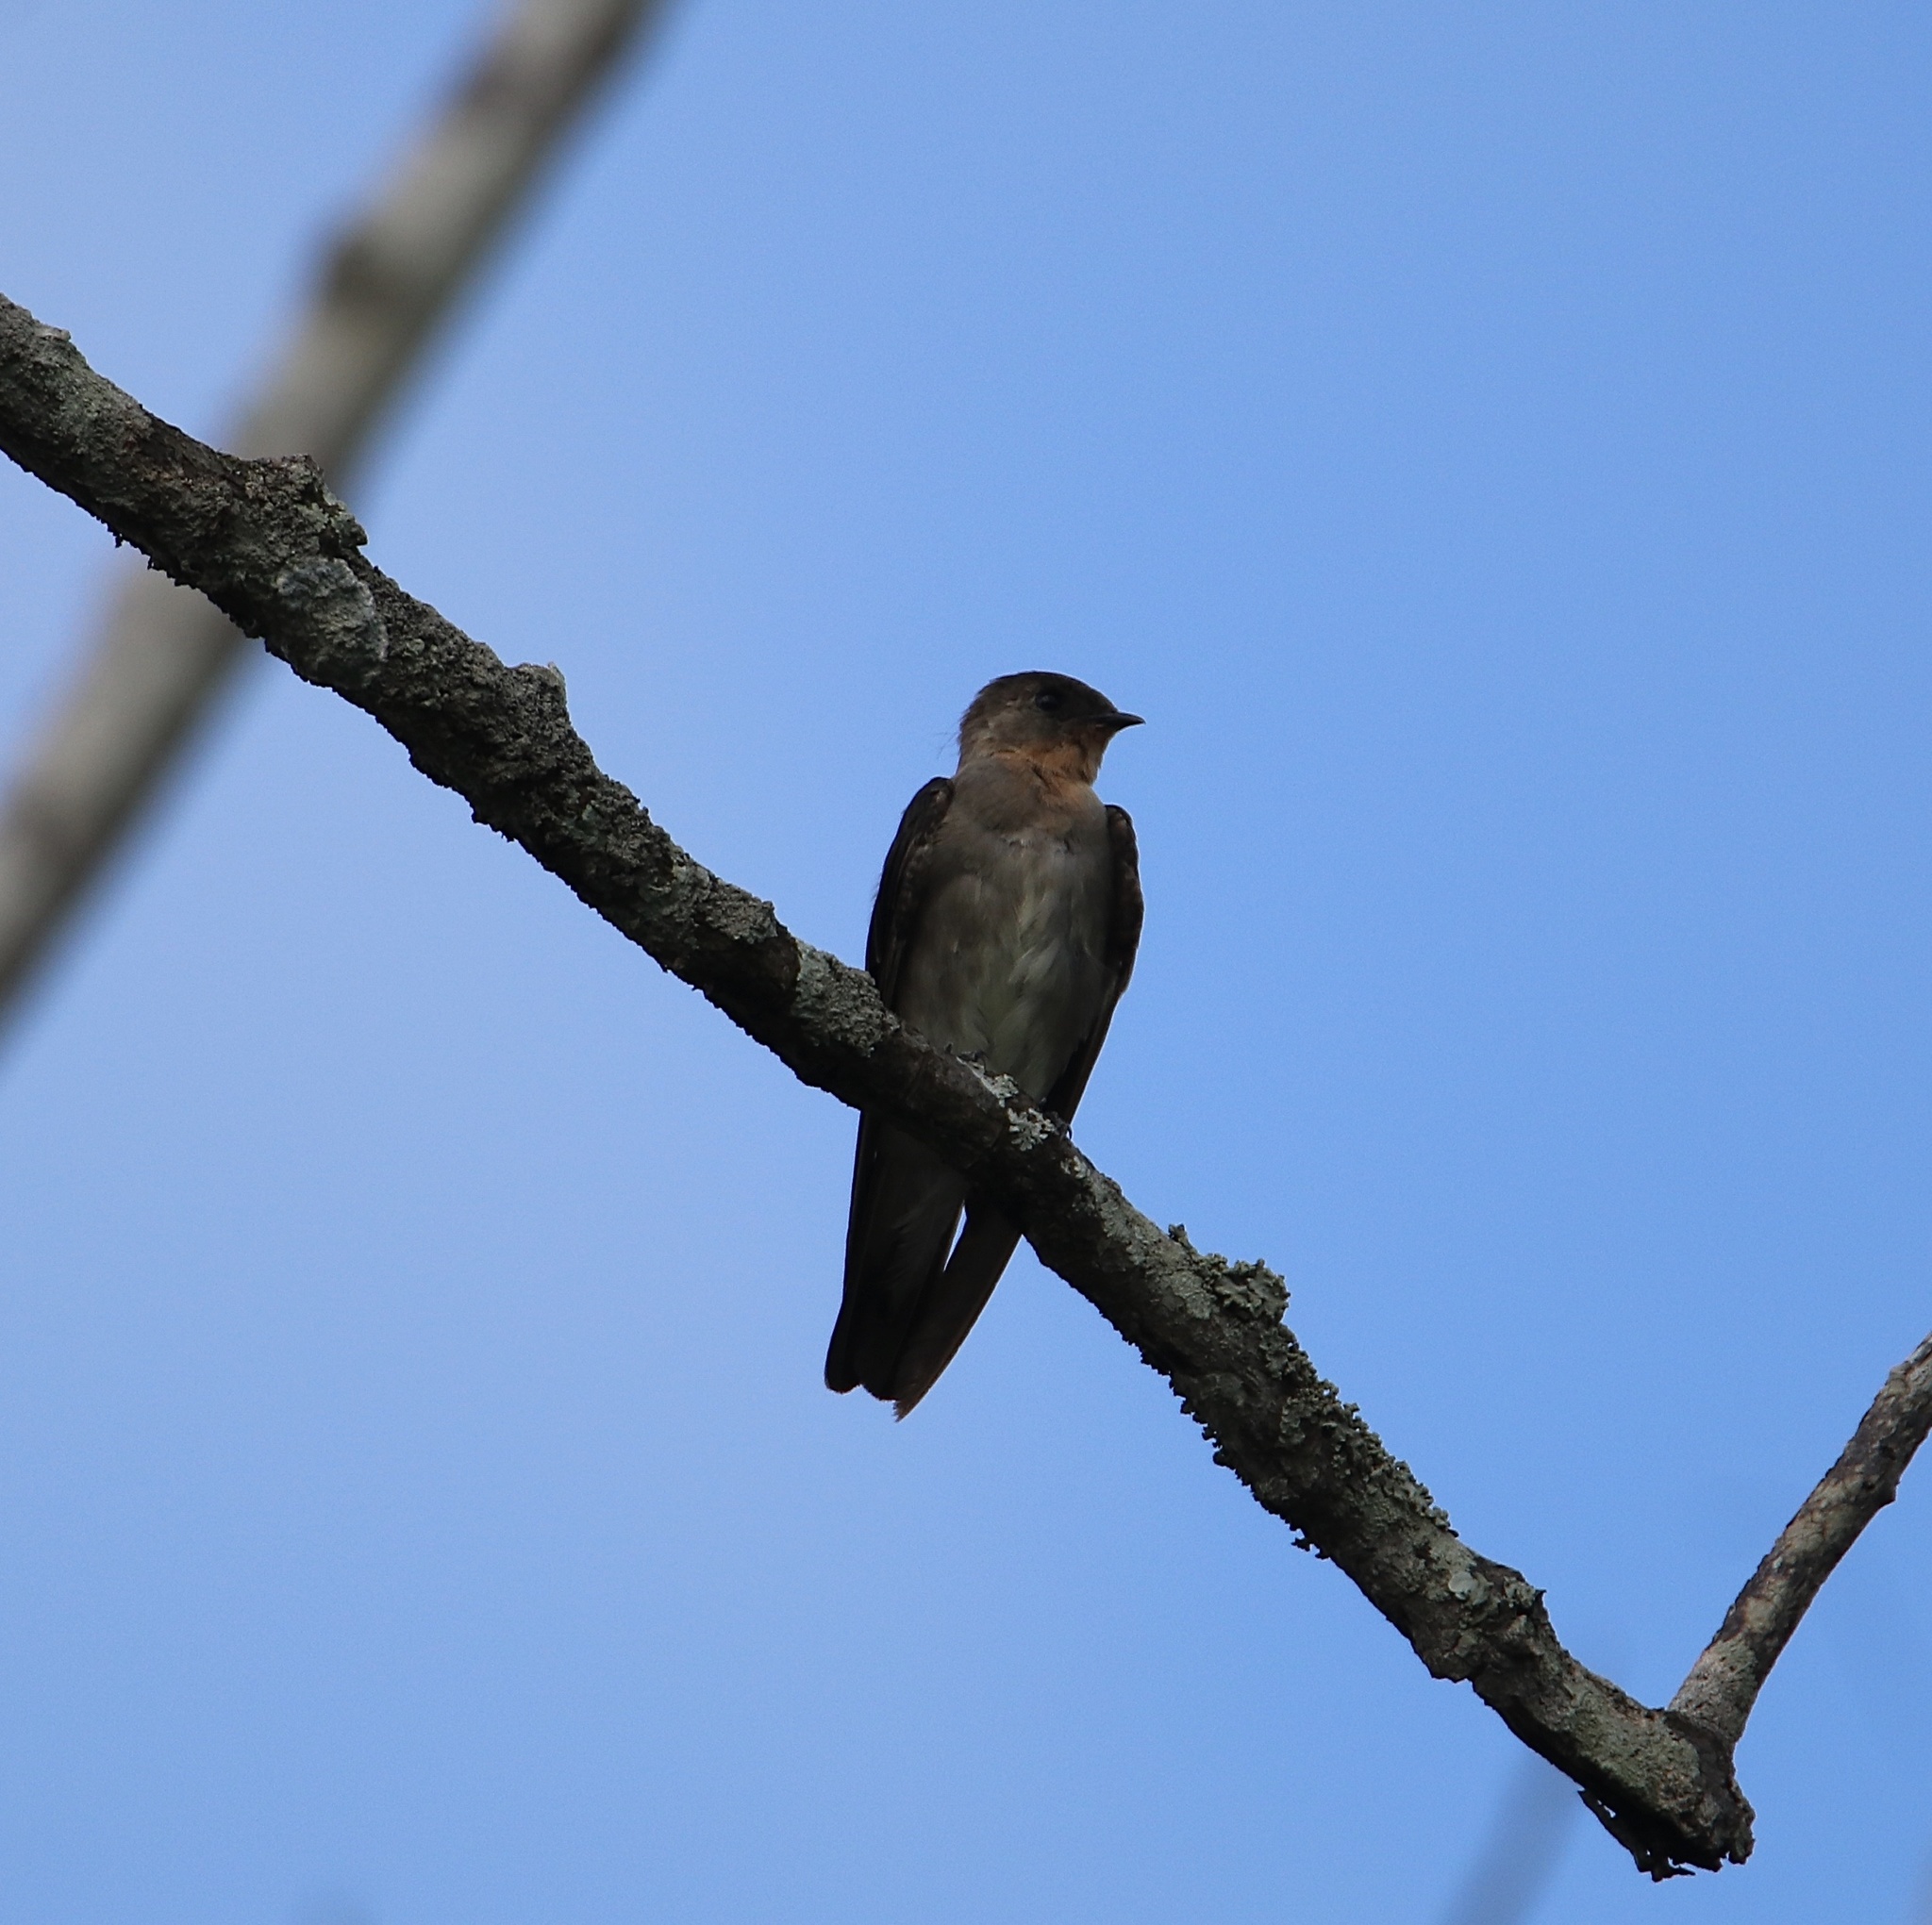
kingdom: Animalia
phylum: Chordata
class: Aves
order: Passeriformes
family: Hirundinidae
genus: Stelgidopteryx
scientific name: Stelgidopteryx ruficollis
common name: Southern rough-winged swallow
